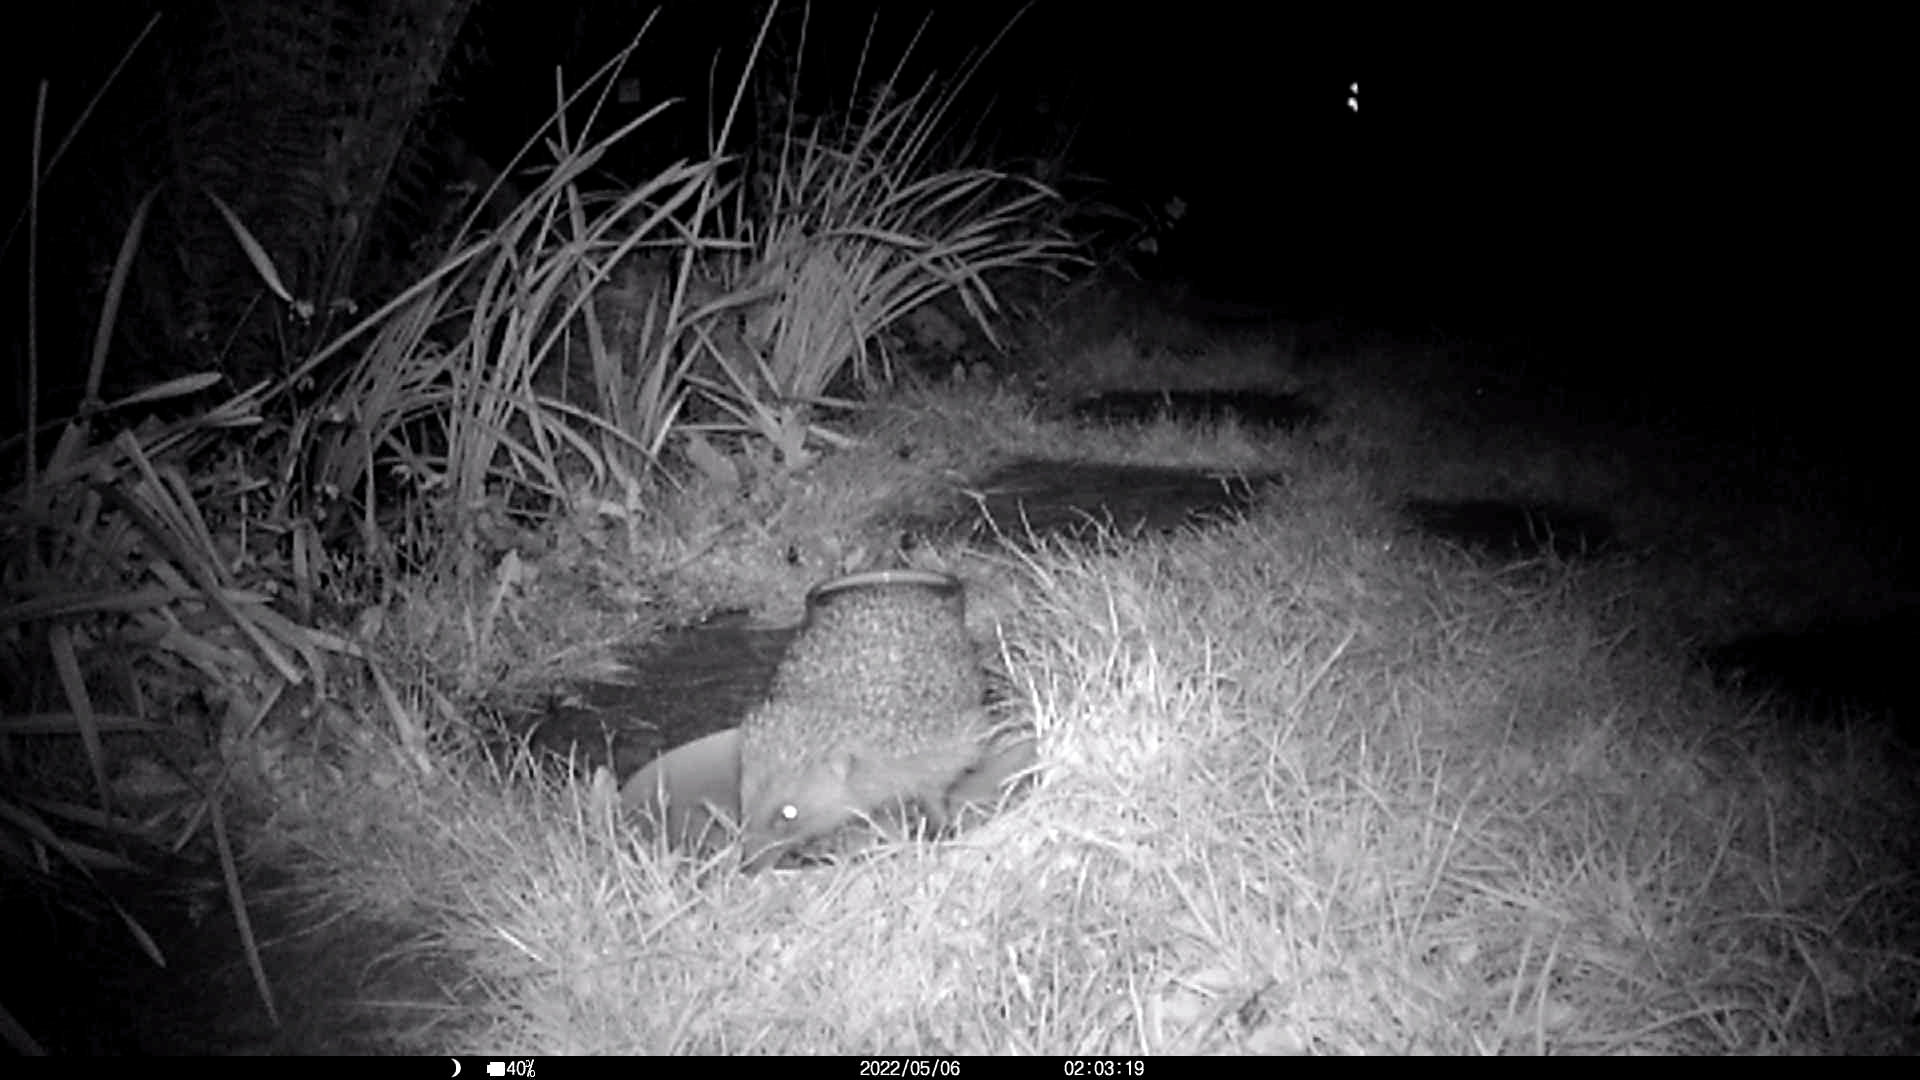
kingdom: Animalia
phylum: Chordata
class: Mammalia
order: Erinaceomorpha
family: Erinaceidae
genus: Erinaceus
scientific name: Erinaceus europaeus
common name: West european hedgehog
